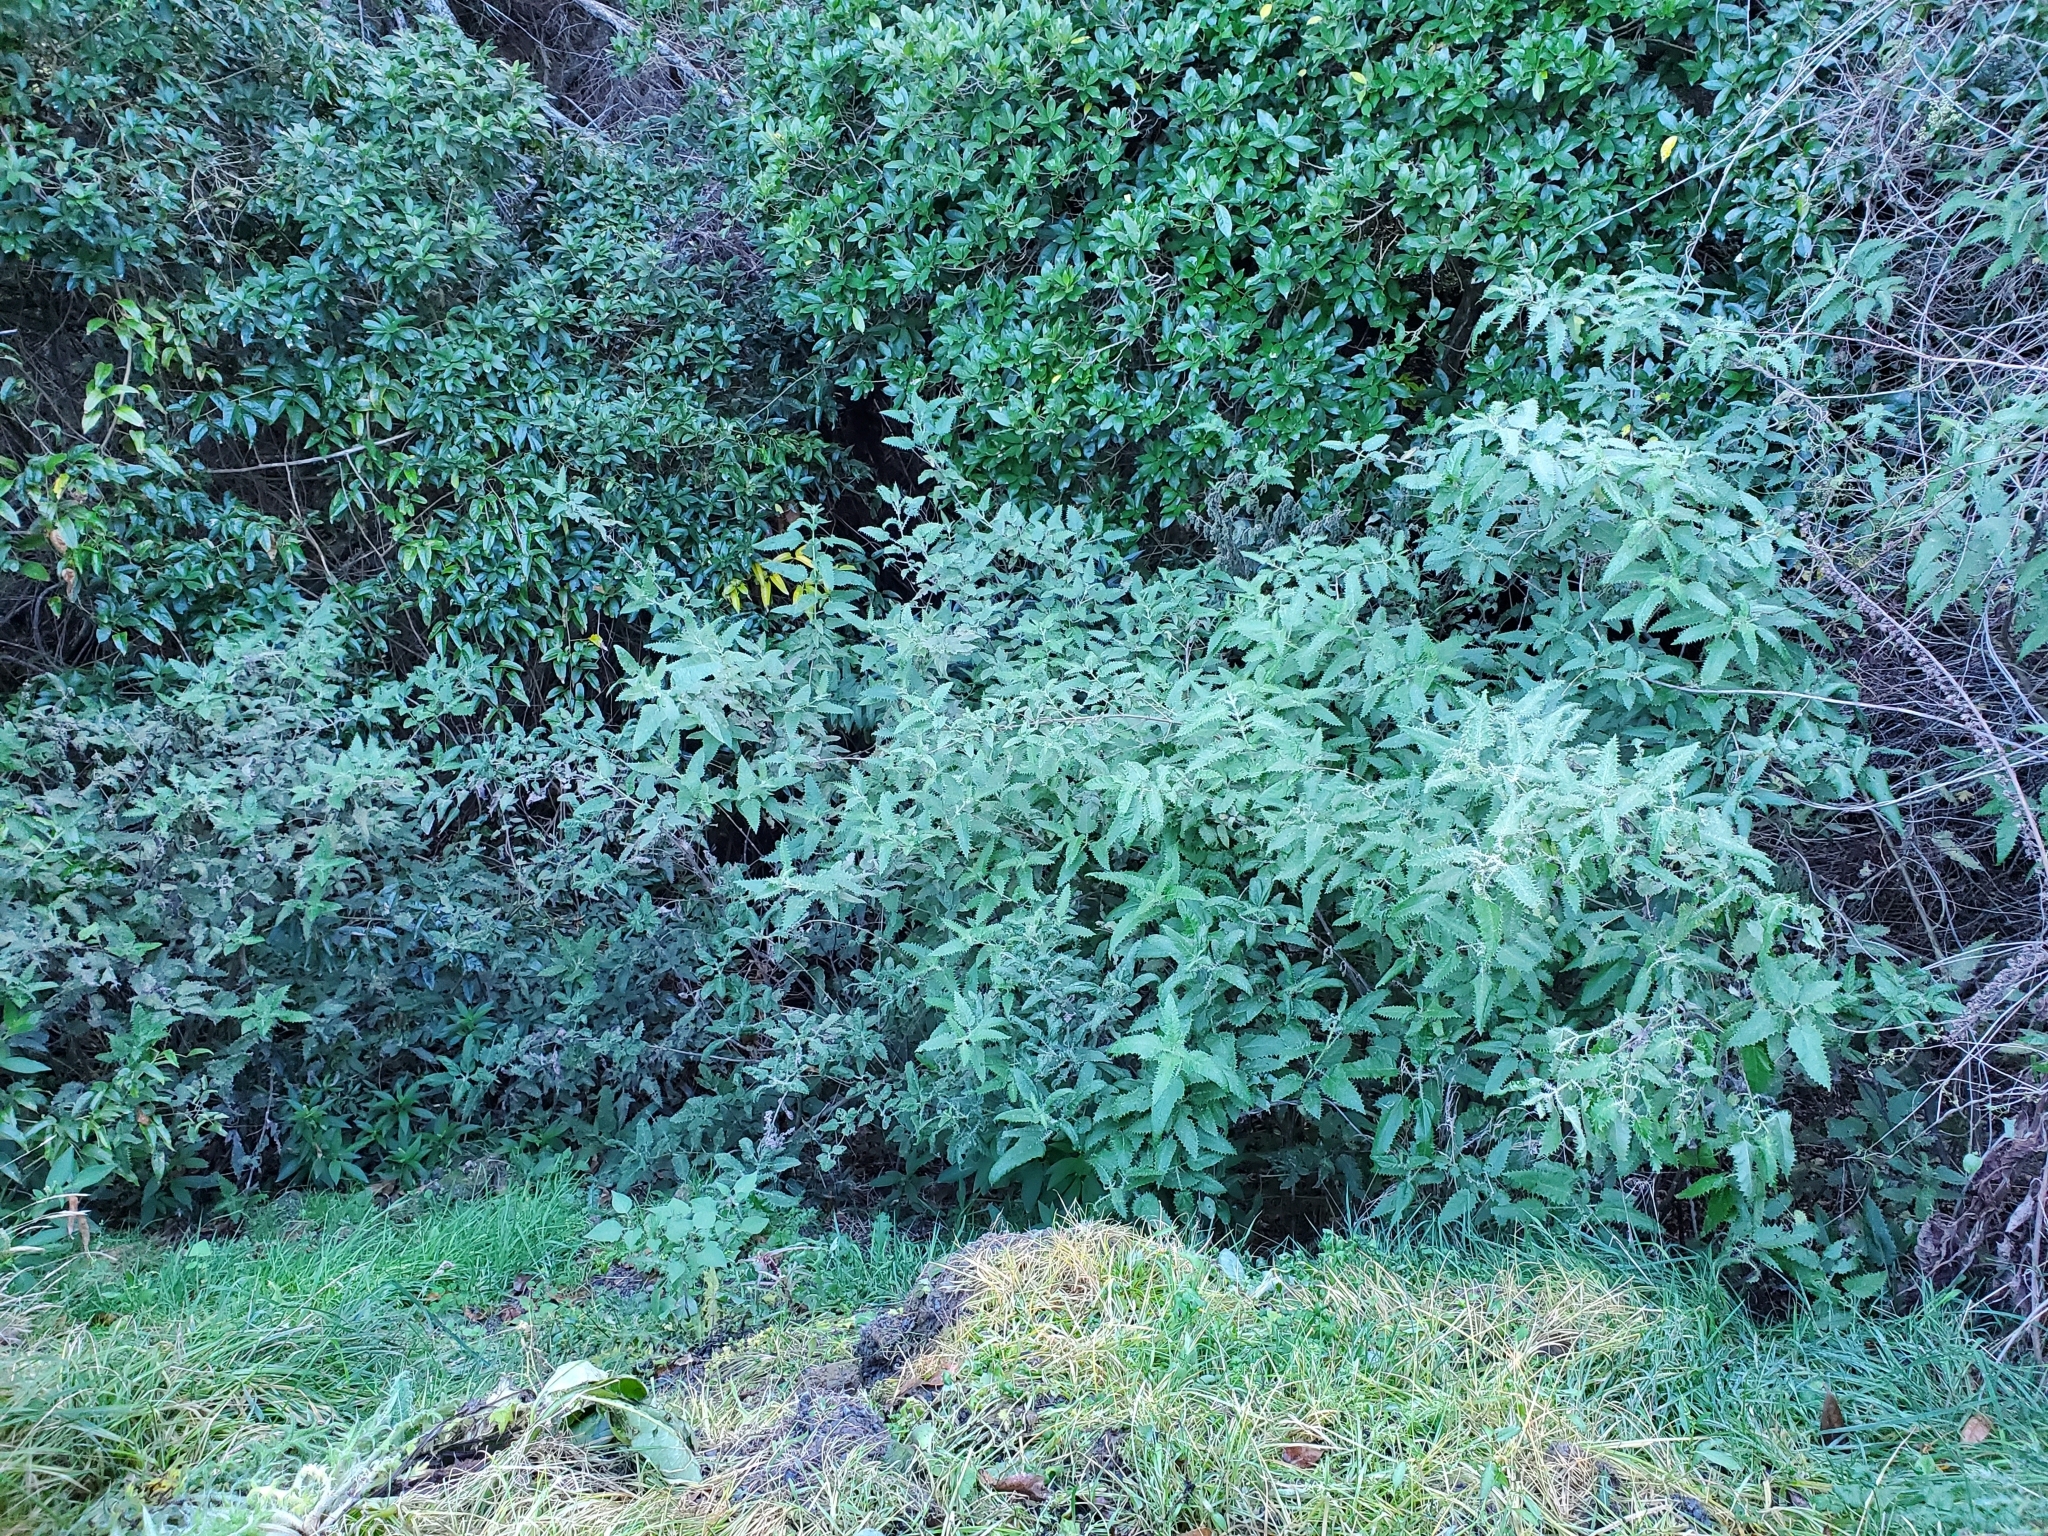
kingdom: Plantae
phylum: Tracheophyta
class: Magnoliopsida
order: Rosales
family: Urticaceae
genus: Urtica
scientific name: Urtica ferox
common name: Tree nettle
